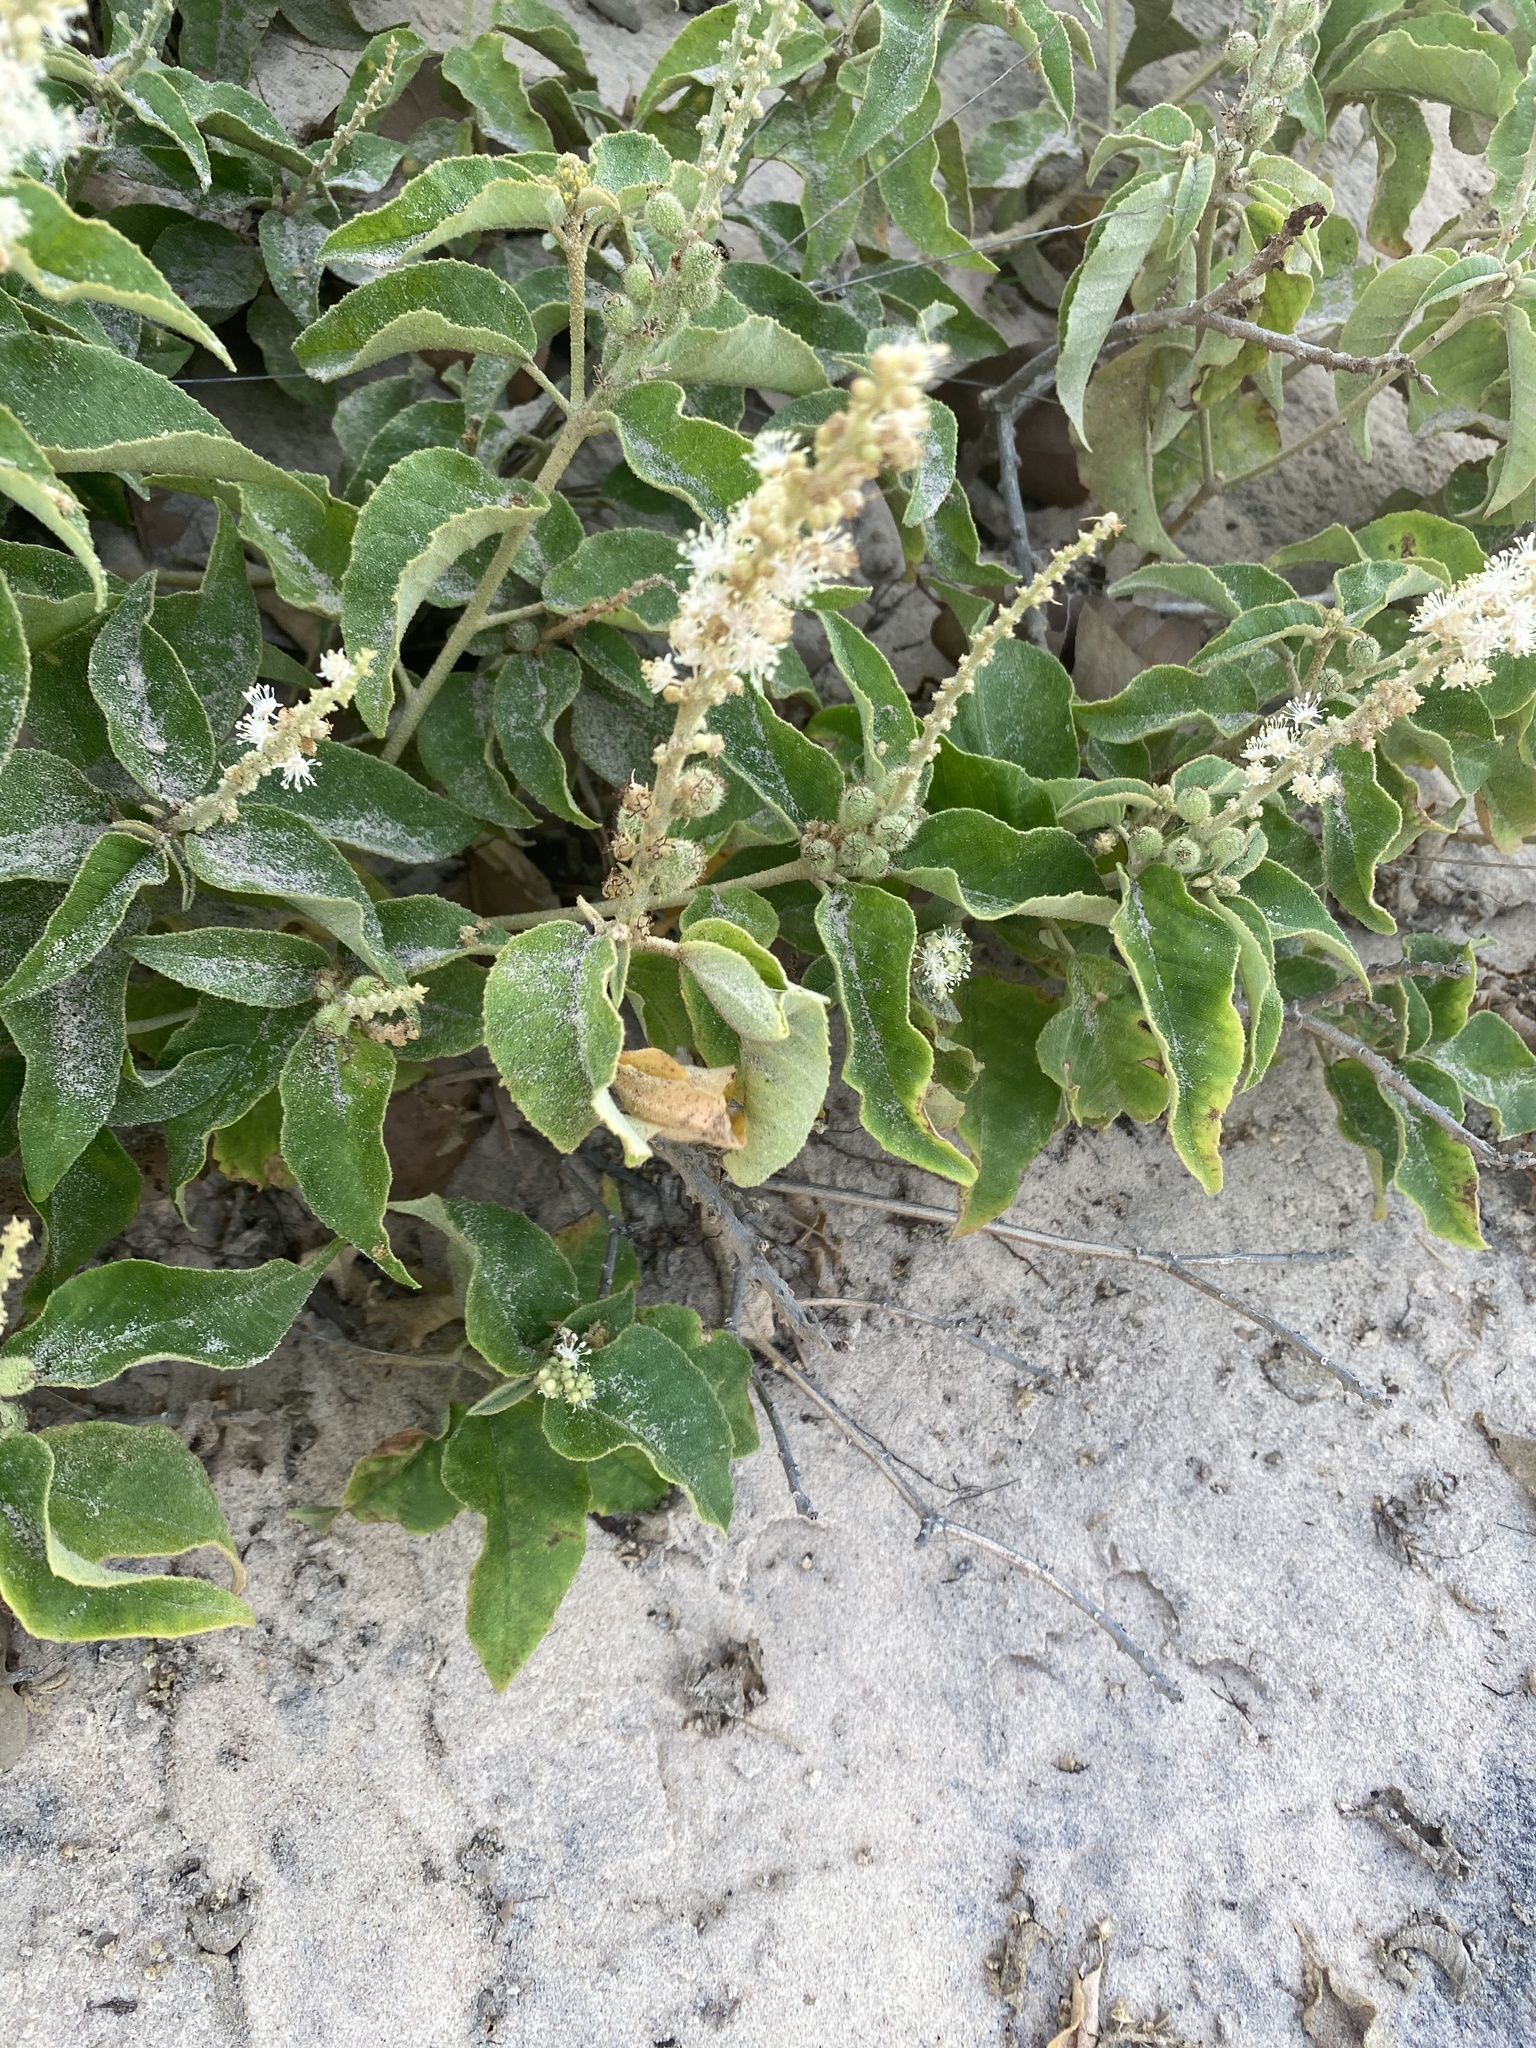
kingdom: Plantae
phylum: Tracheophyta
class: Magnoliopsida
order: Malpighiales
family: Euphorbiaceae
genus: Croton
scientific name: Croton heliotropiifolius
